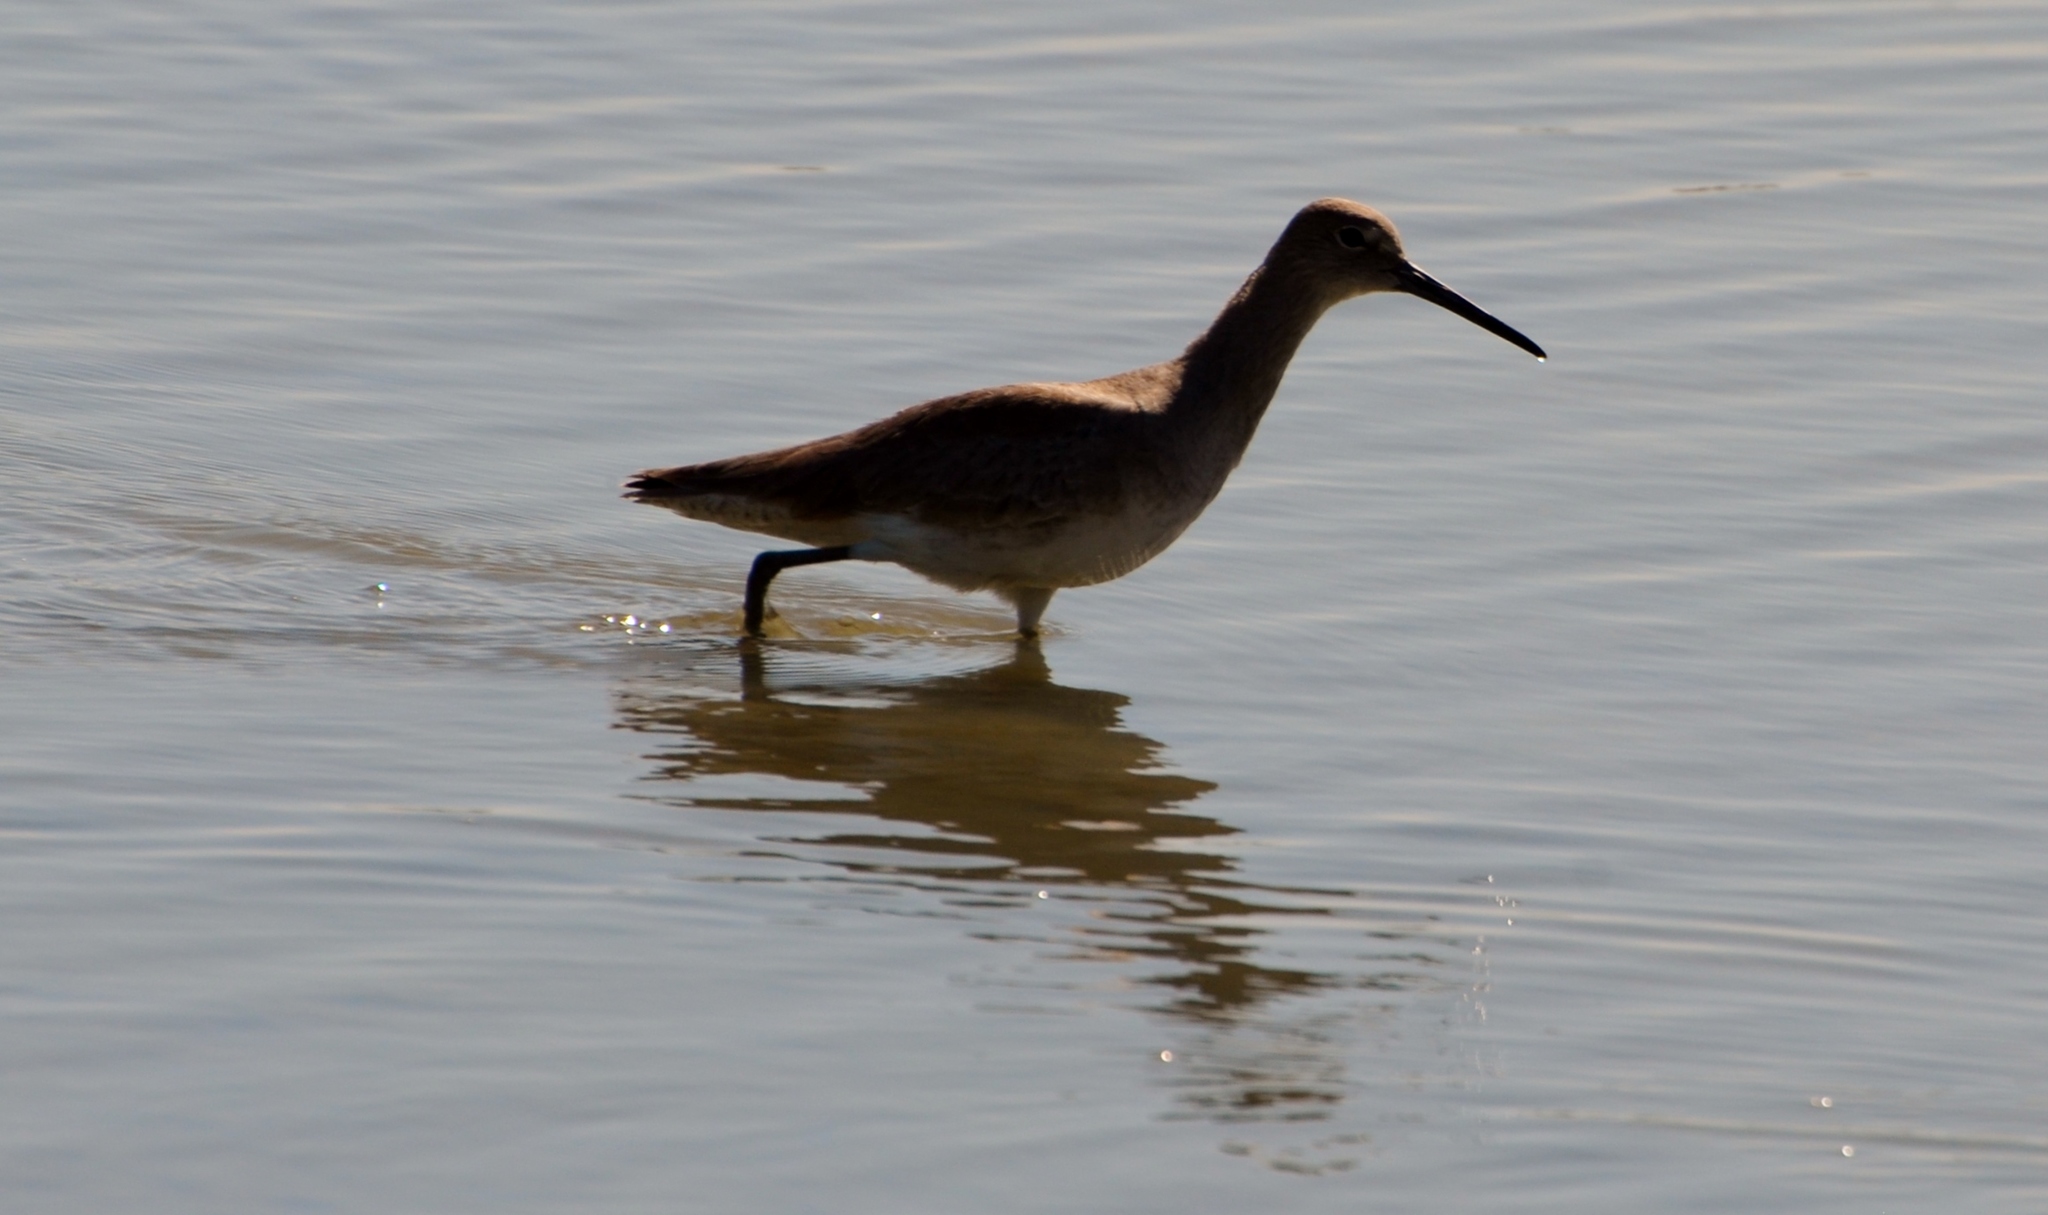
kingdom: Animalia
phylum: Chordata
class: Aves
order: Charadriiformes
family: Scolopacidae
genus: Tringa
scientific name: Tringa semipalmata
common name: Willet
